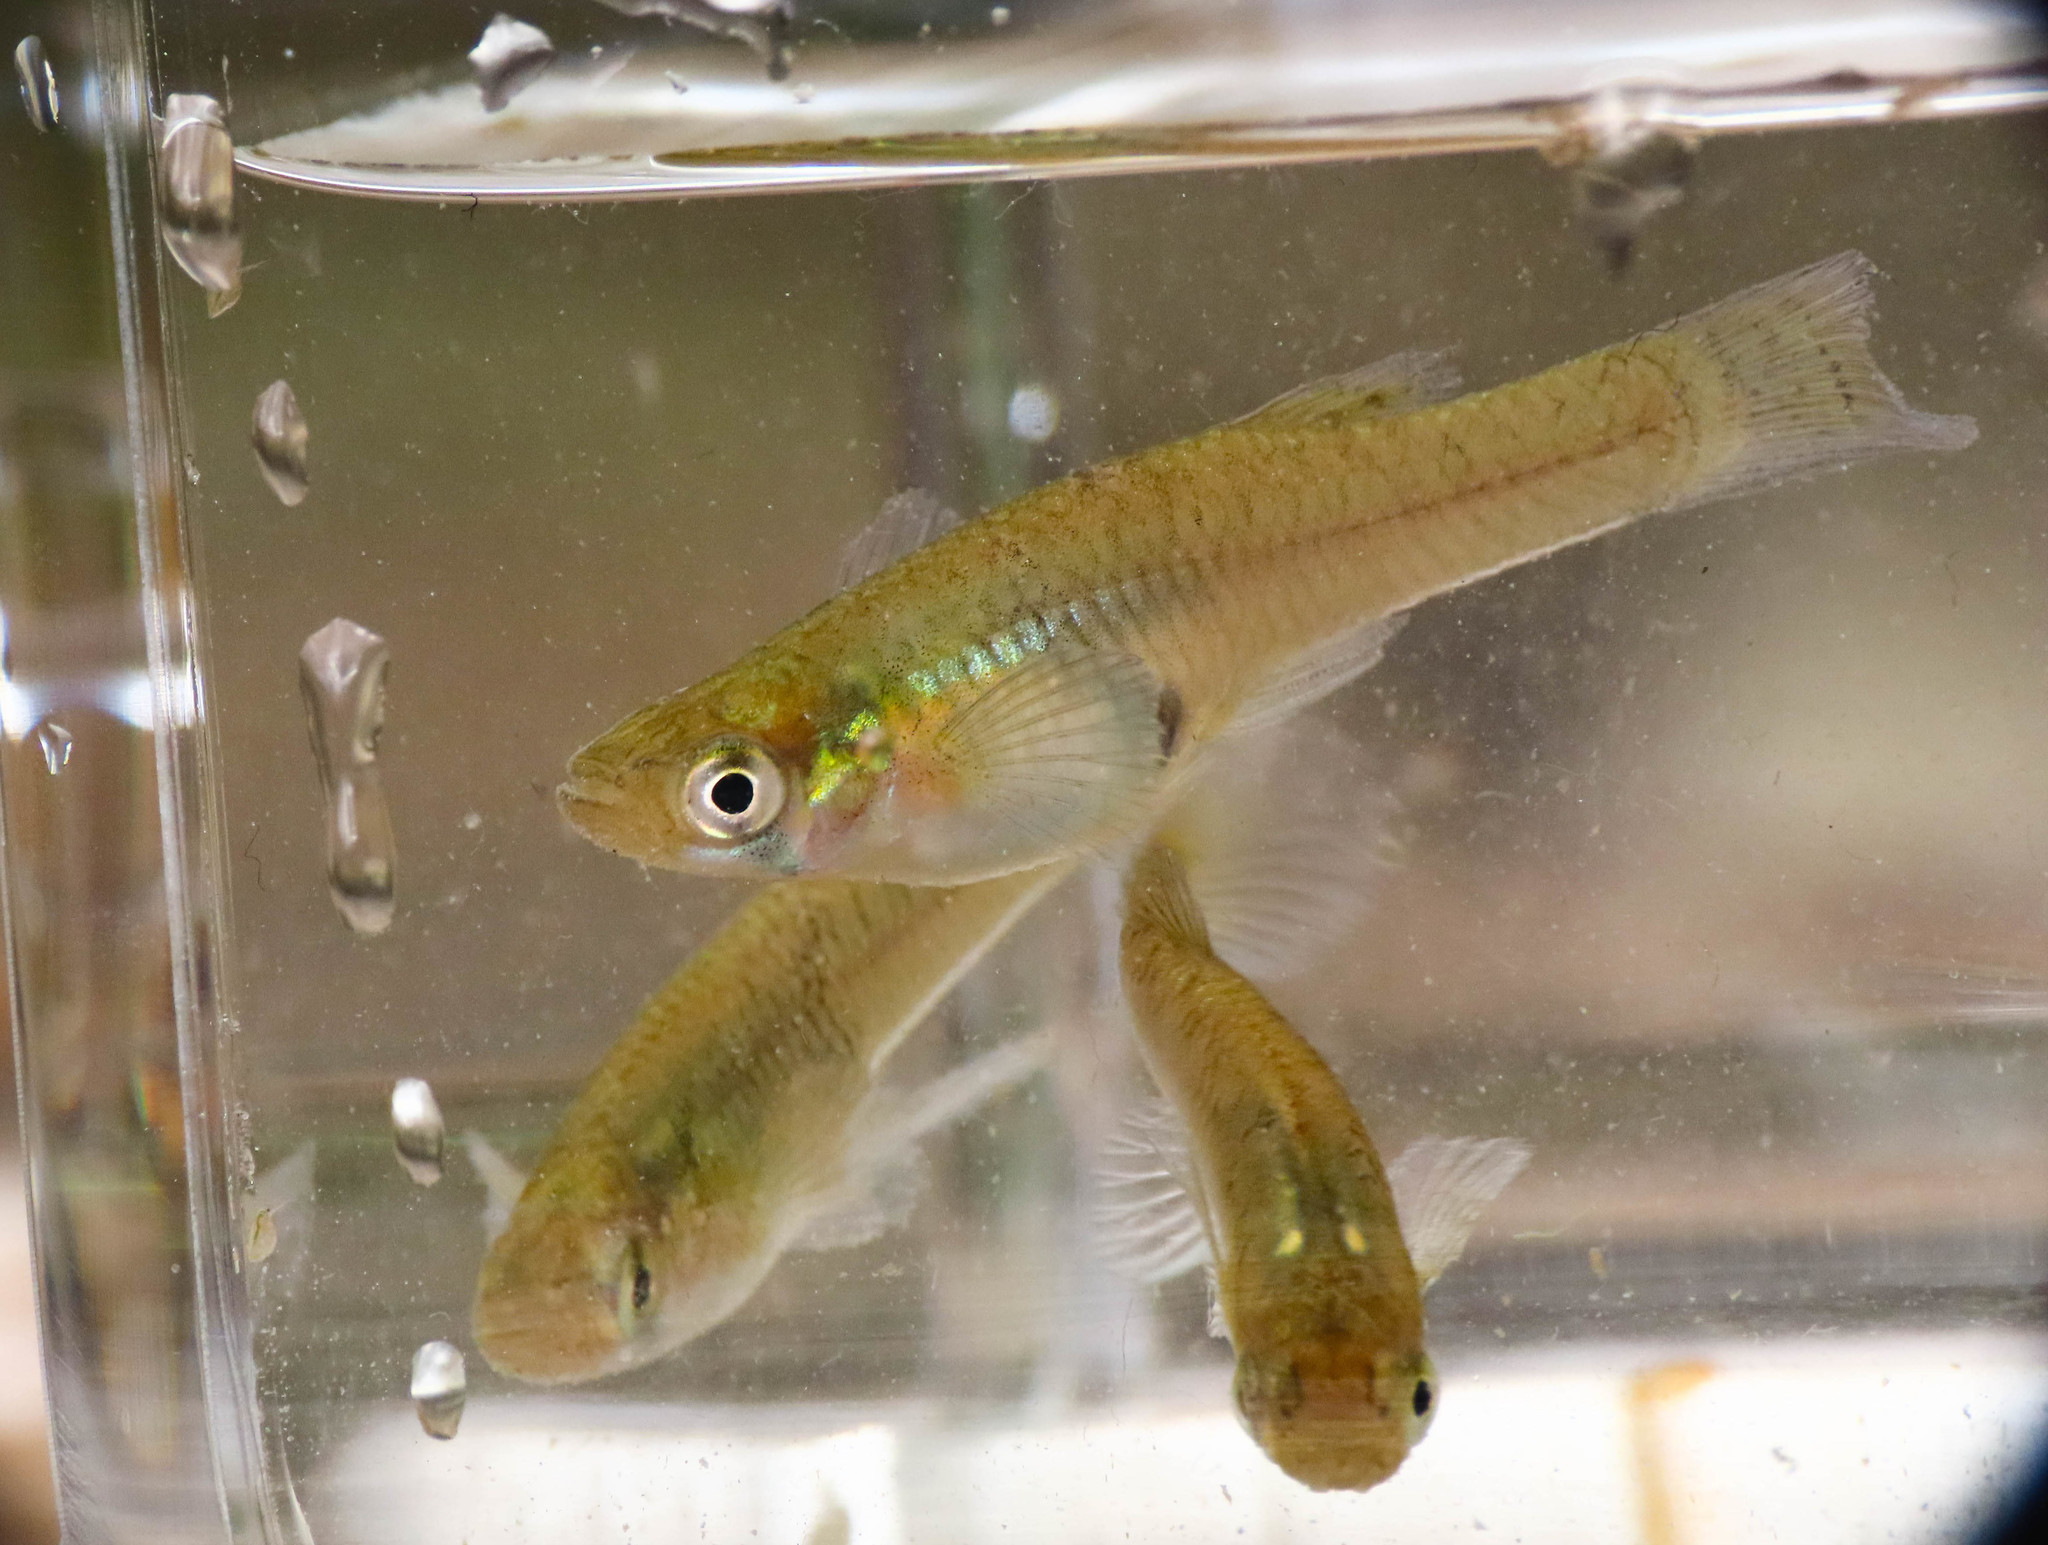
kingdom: Animalia
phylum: Chordata
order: Cyprinodontiformes
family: Poeciliidae
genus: Gambusia
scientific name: Gambusia holbrooki
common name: Eastern mosquitofish
